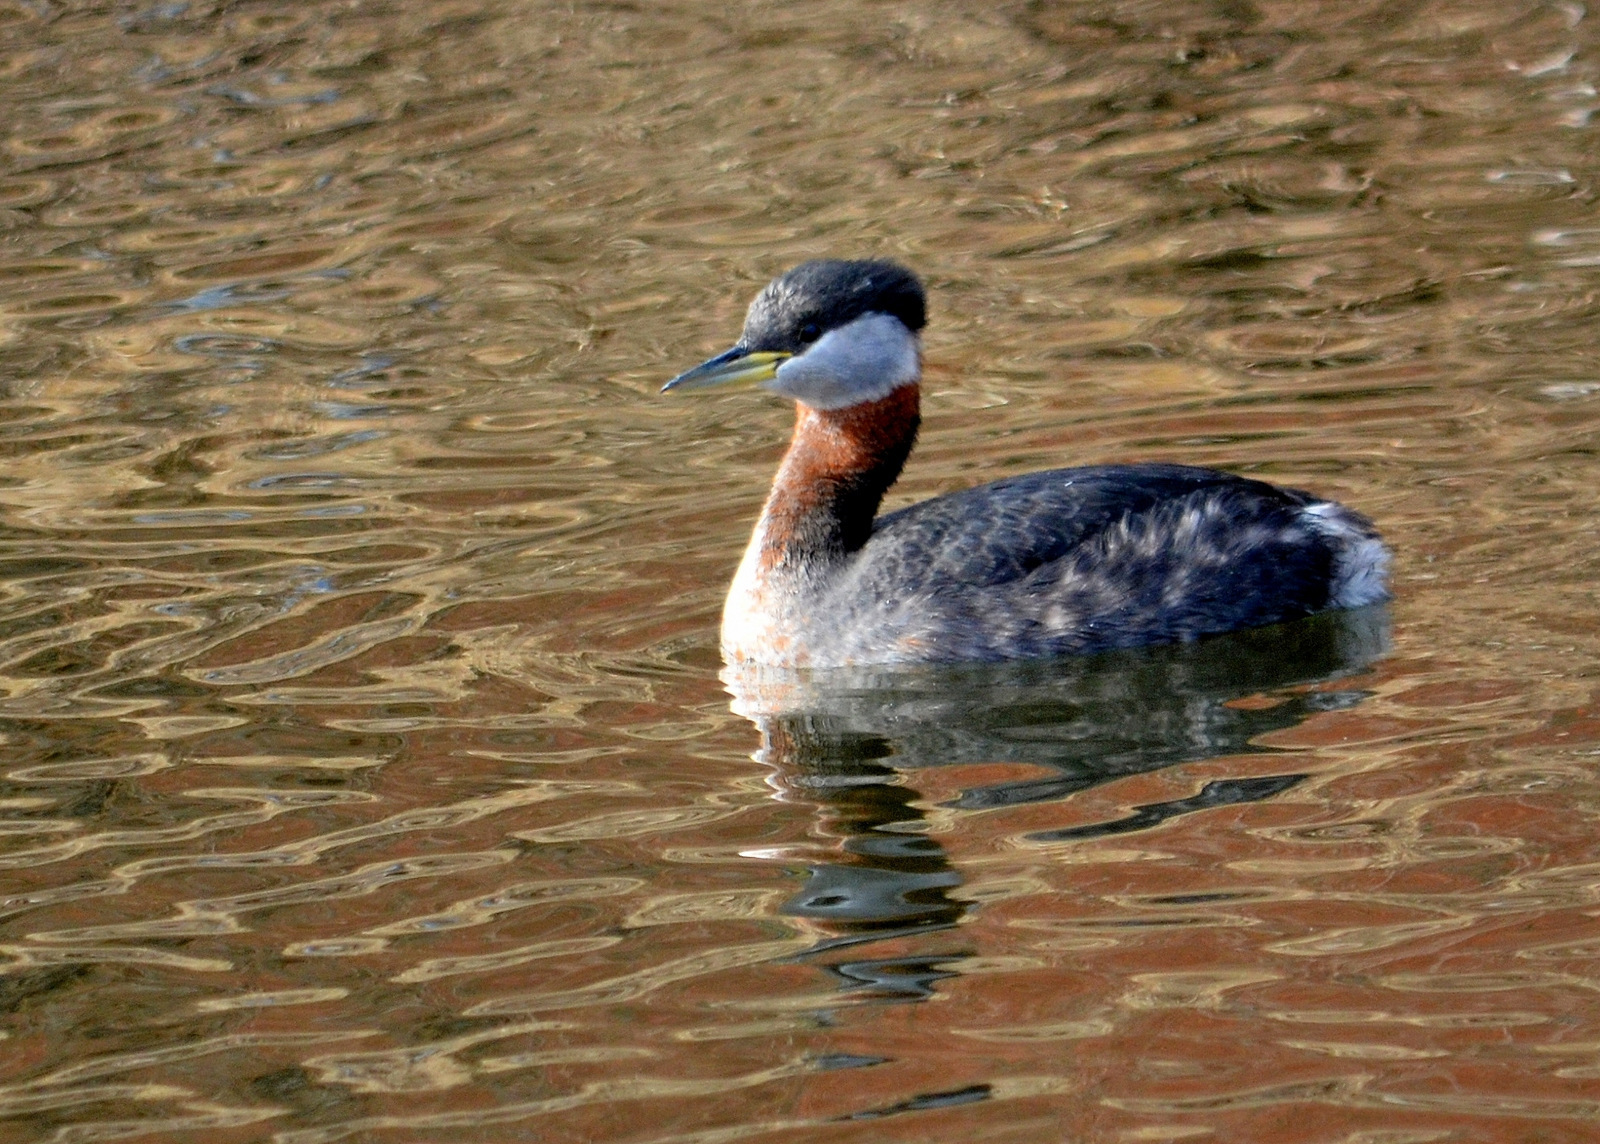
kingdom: Animalia
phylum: Chordata
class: Aves
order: Podicipediformes
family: Podicipedidae
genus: Podiceps
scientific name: Podiceps grisegena
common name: Red-necked grebe
